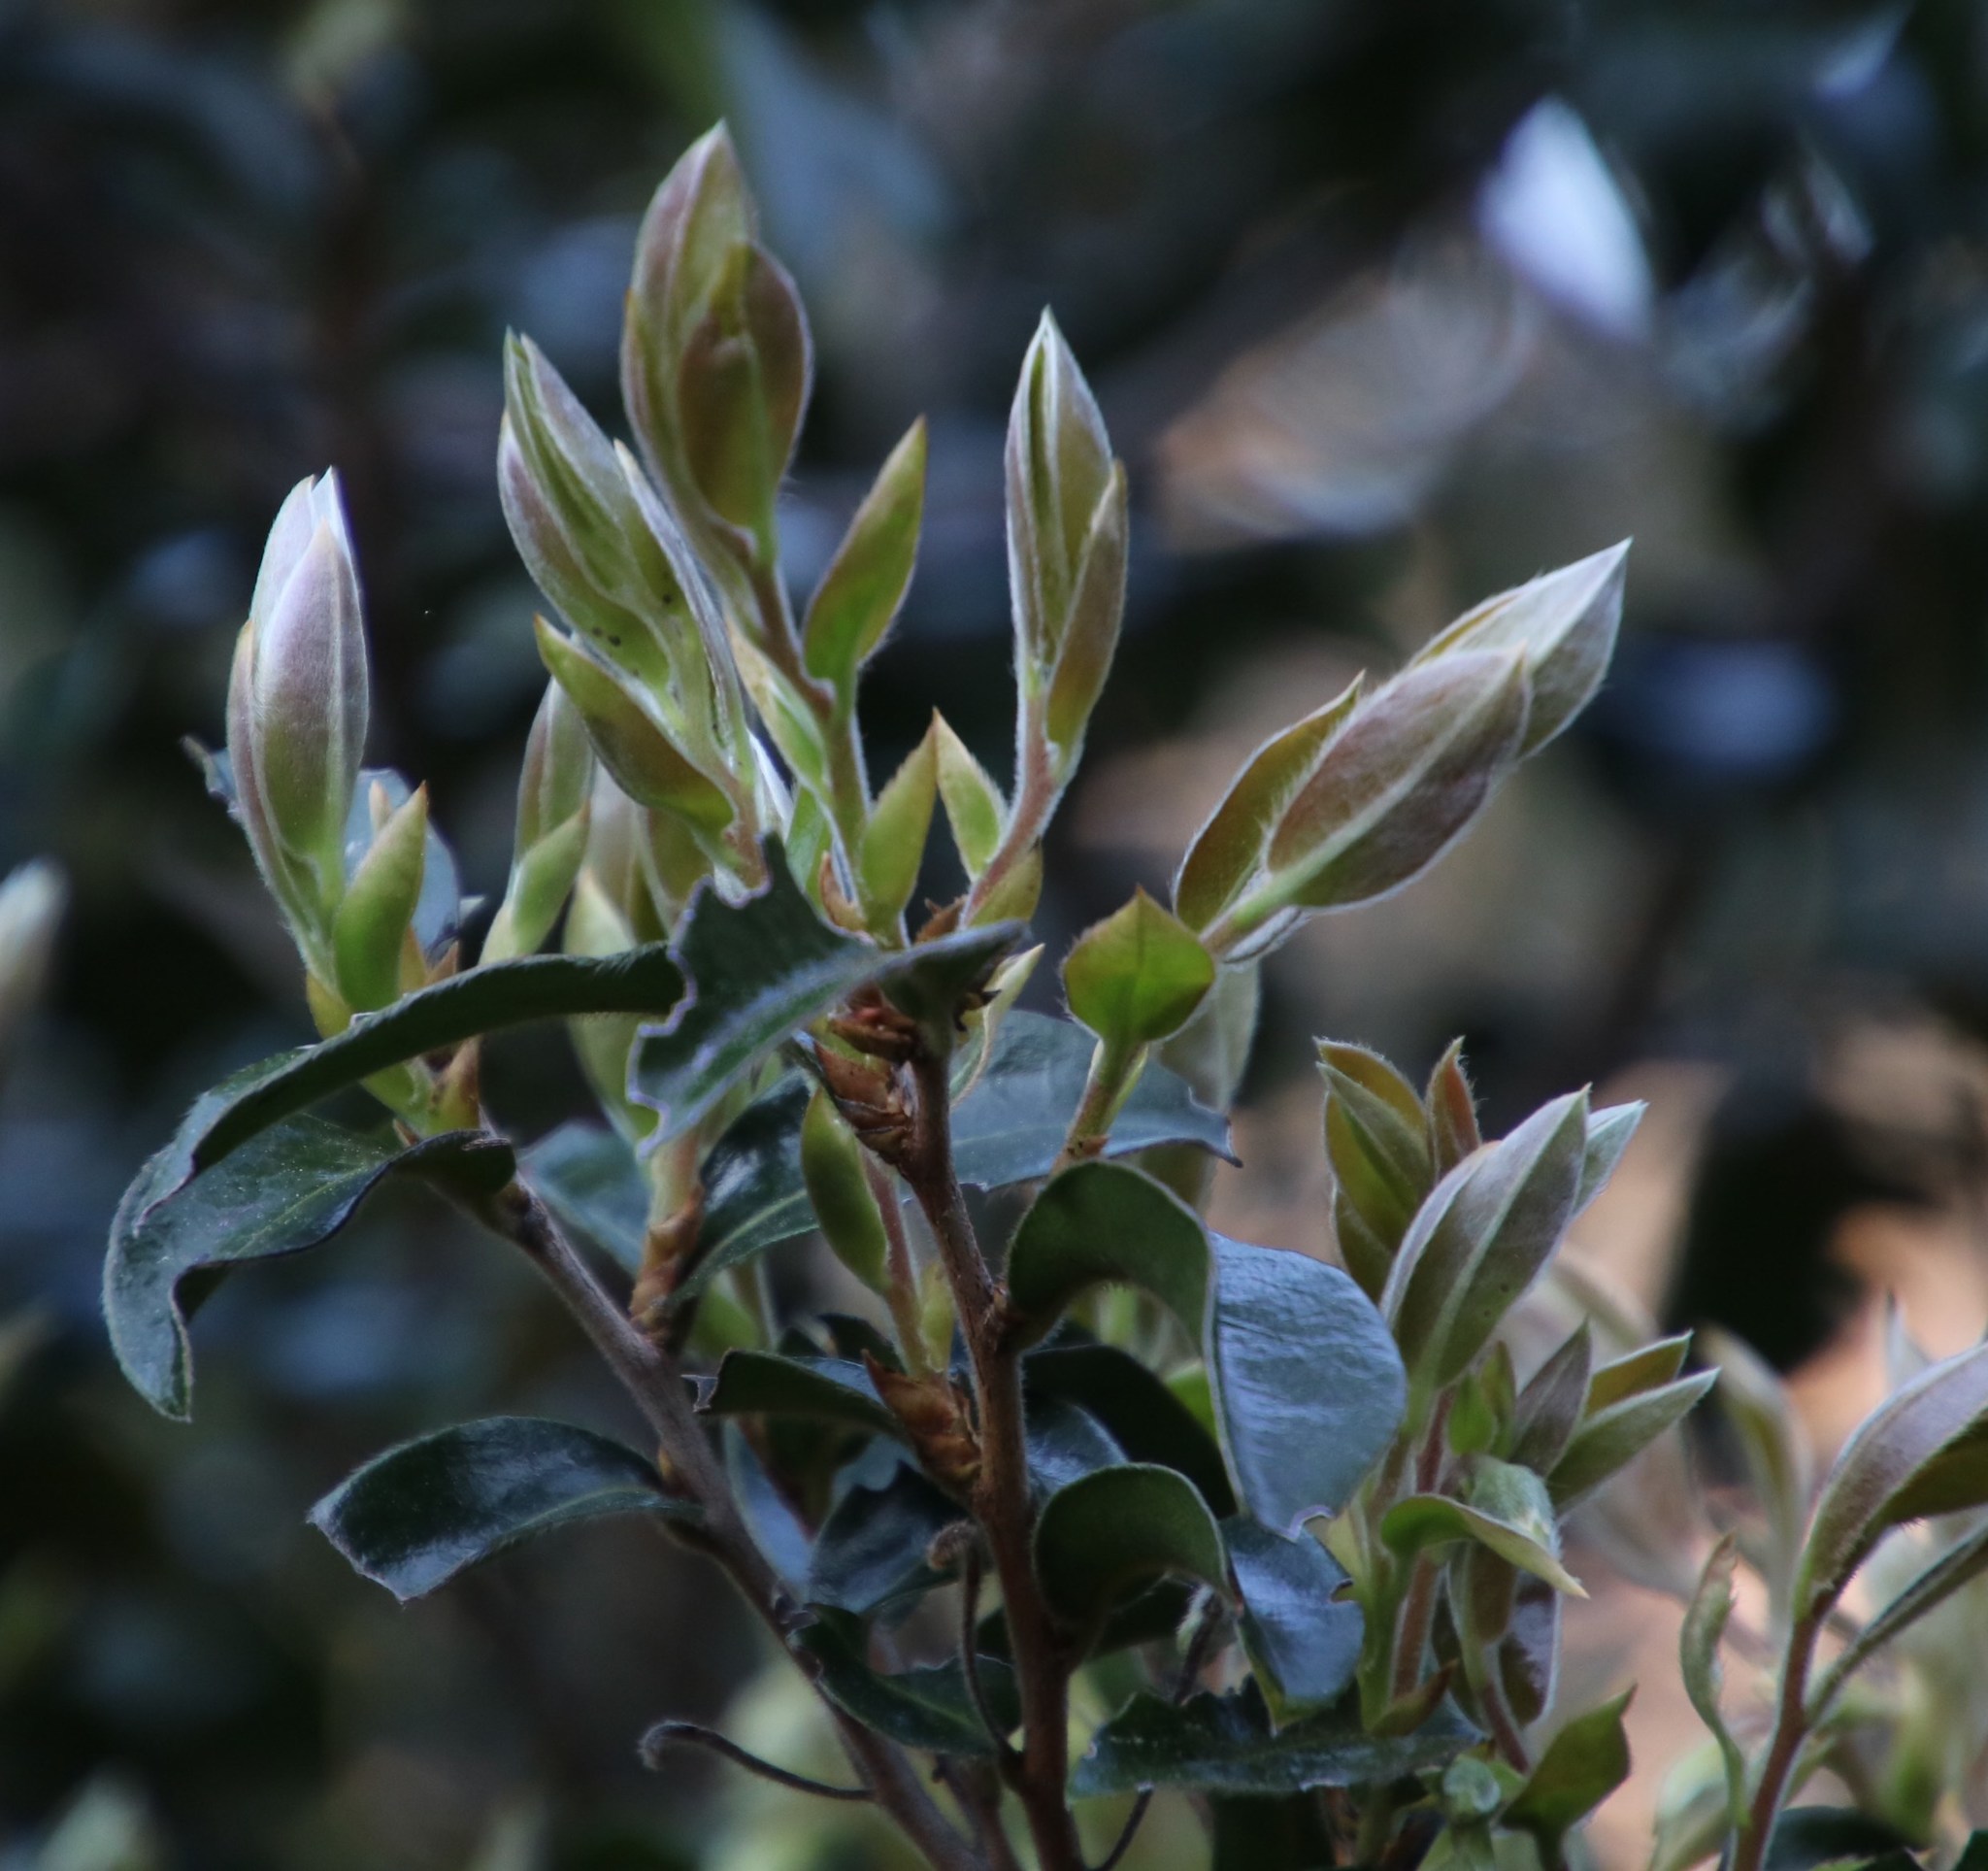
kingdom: Plantae
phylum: Tracheophyta
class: Magnoliopsida
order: Ericales
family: Ebenaceae
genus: Diospyros
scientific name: Diospyros whyteana
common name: Bladder-nut
